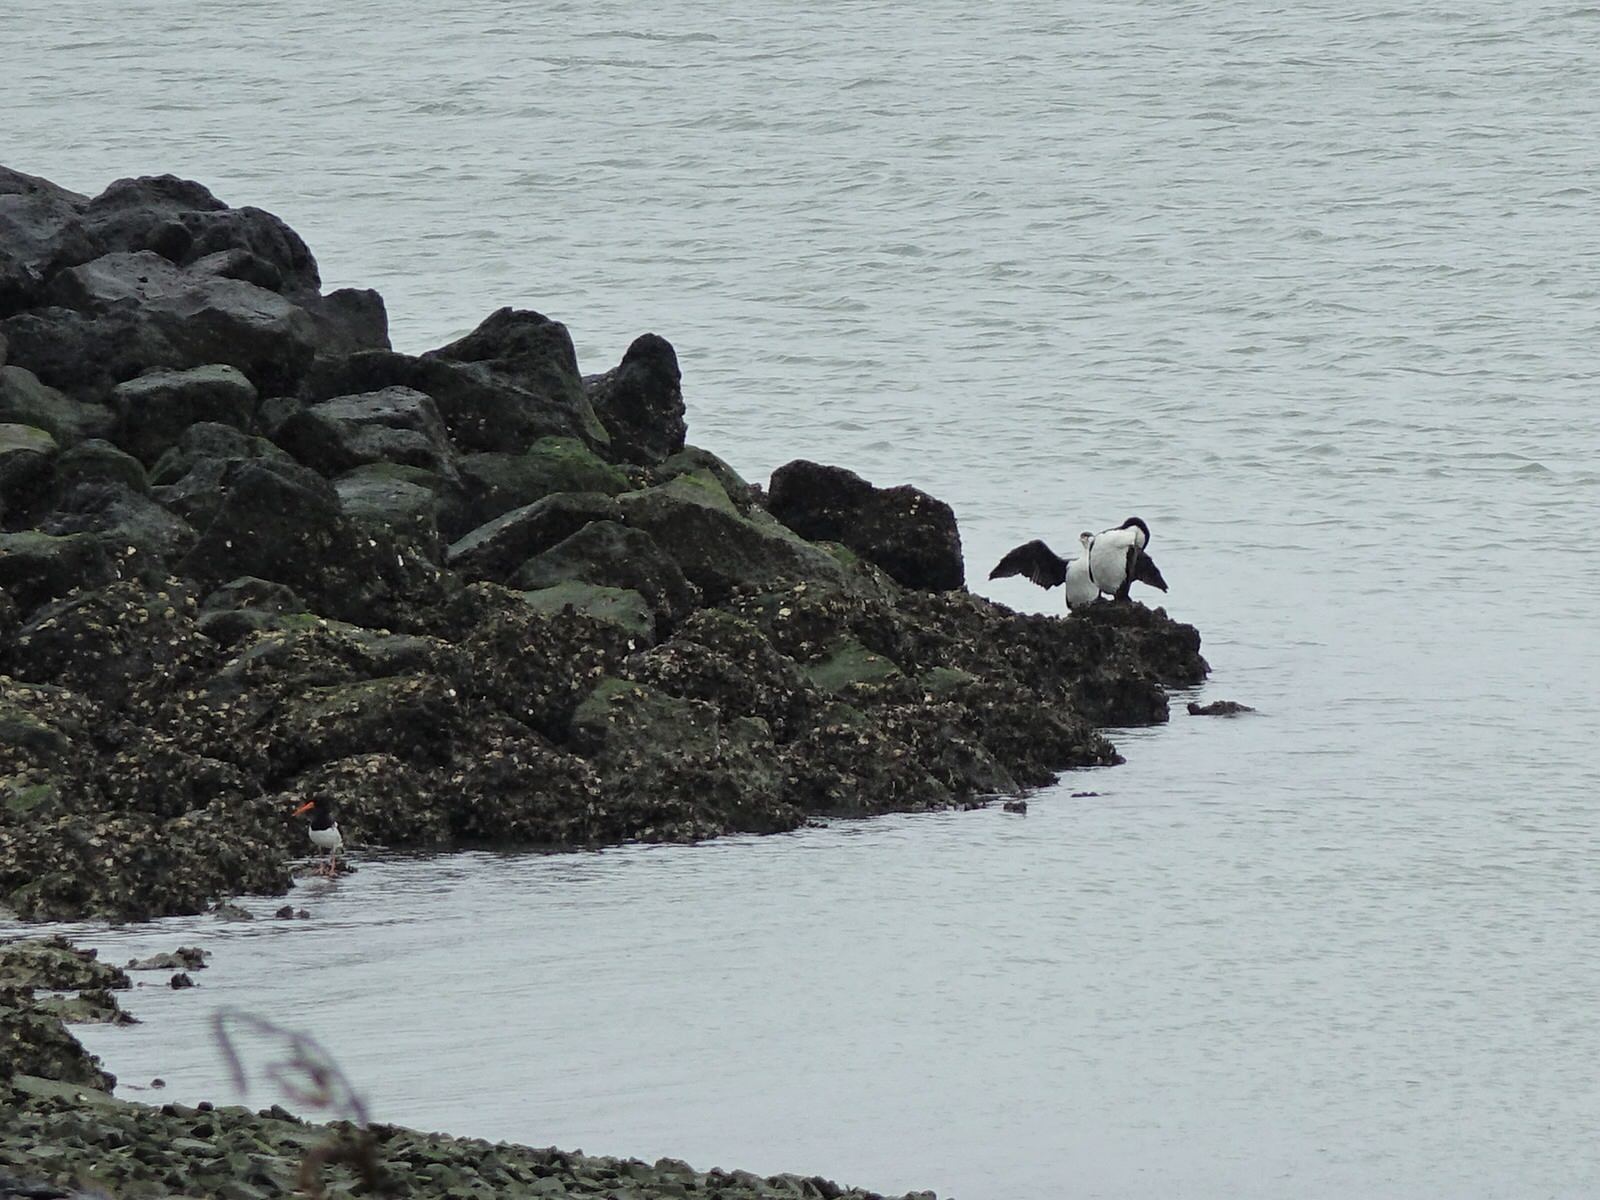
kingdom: Animalia
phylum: Chordata
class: Aves
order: Suliformes
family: Phalacrocoracidae
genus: Phalacrocorax
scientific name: Phalacrocorax varius
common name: Pied cormorant
